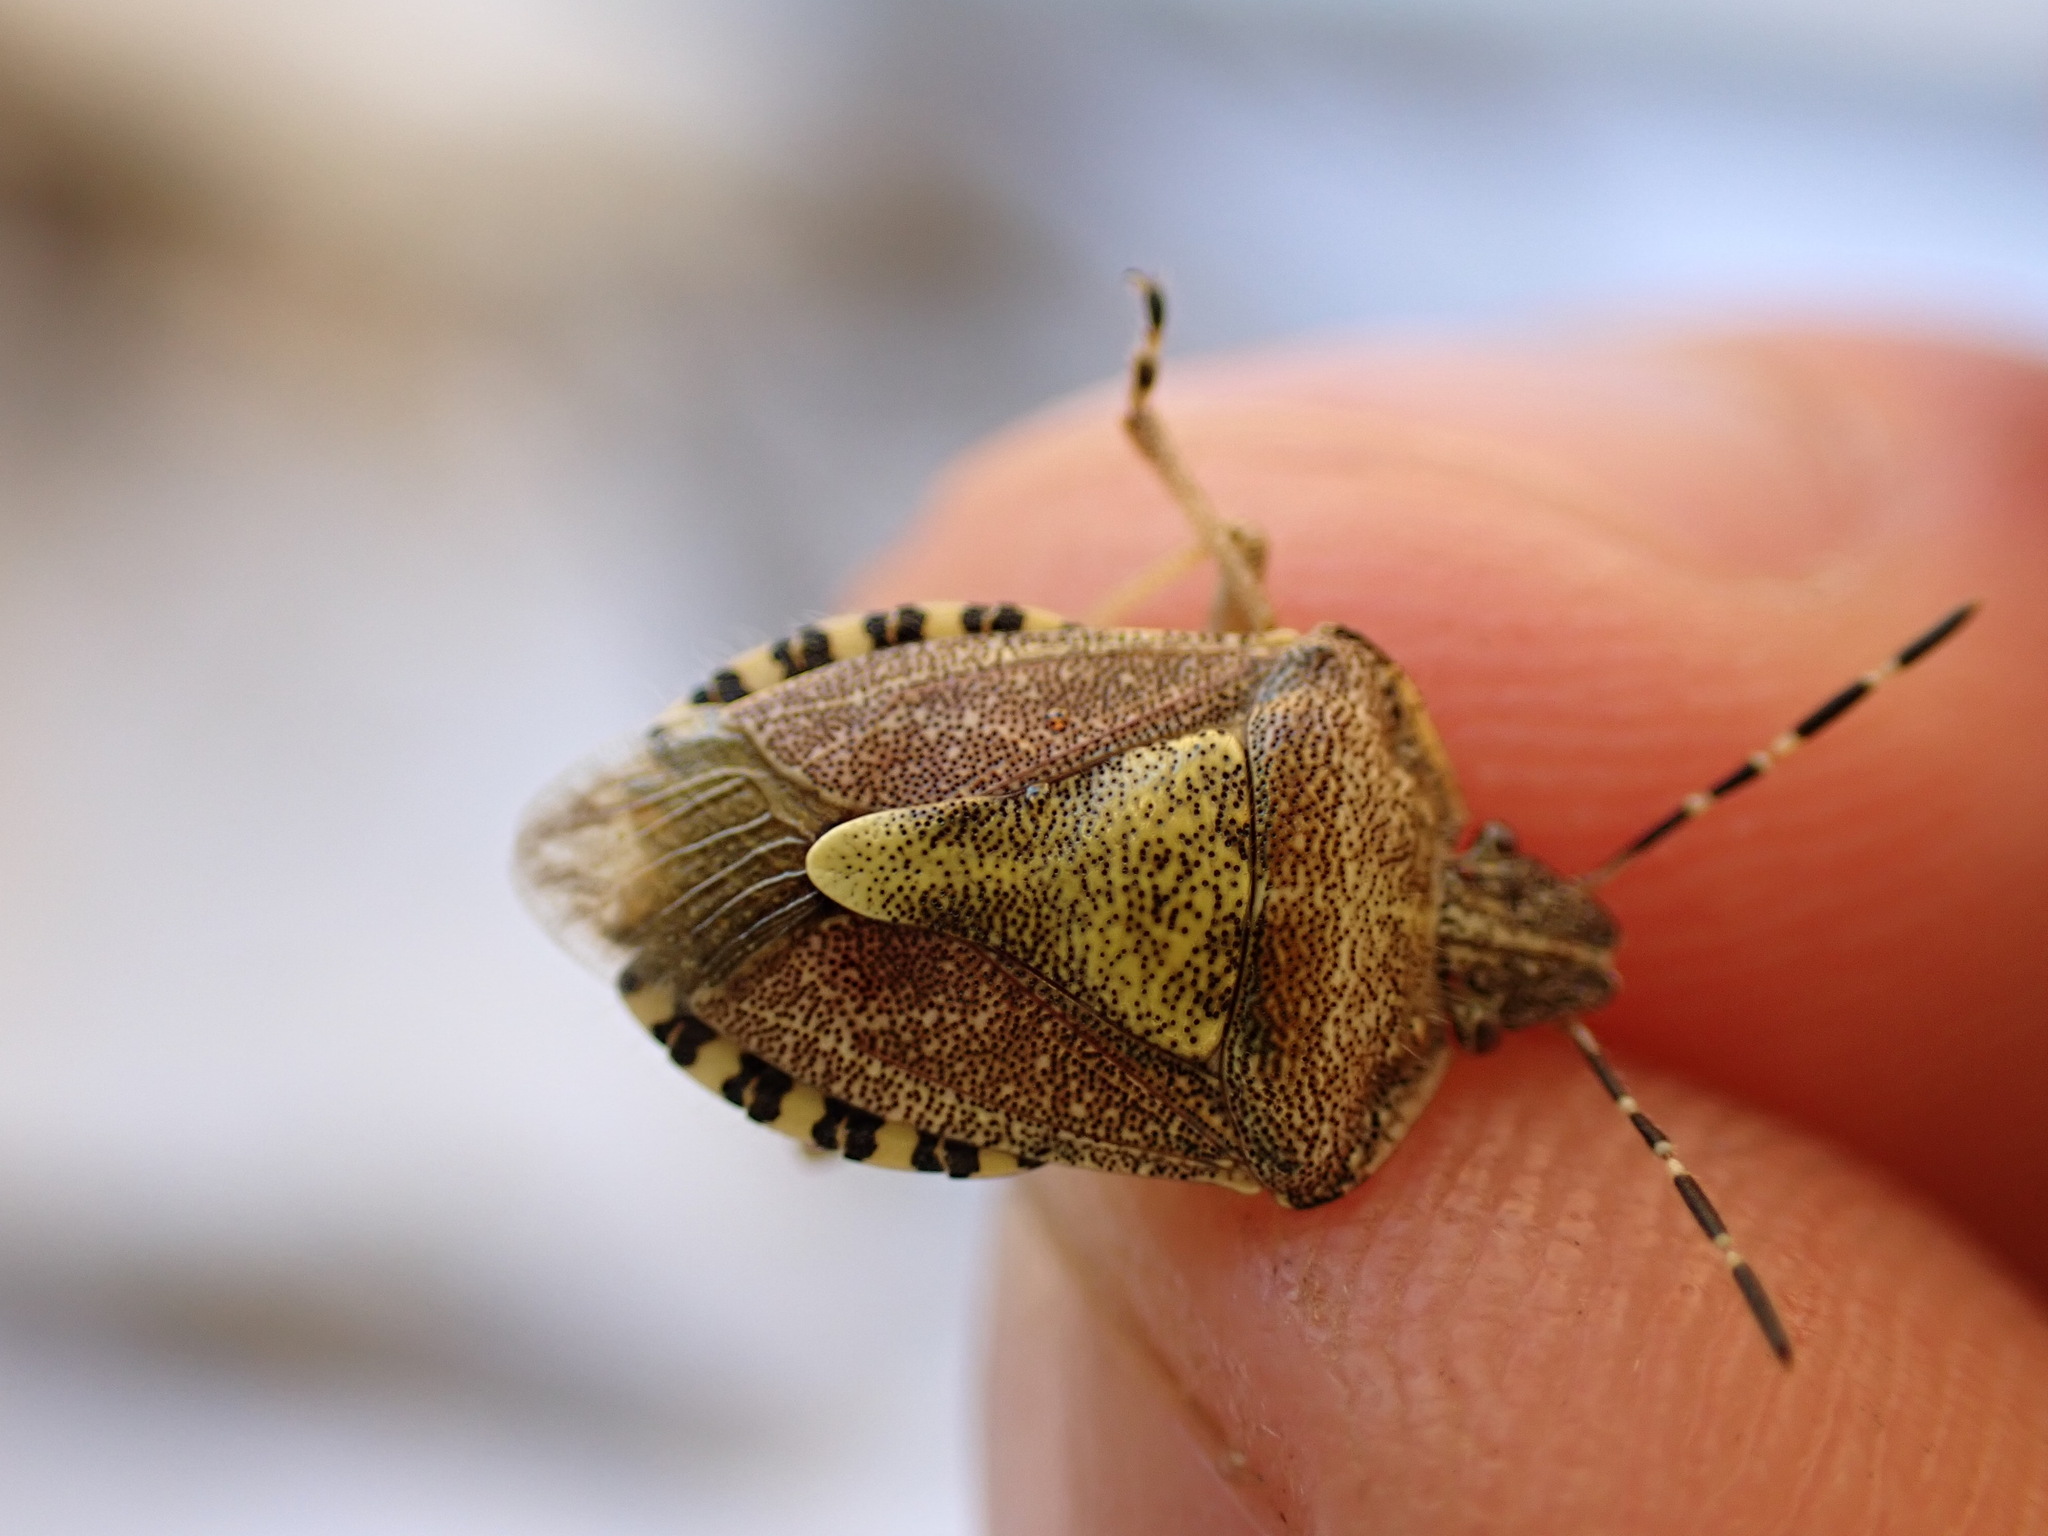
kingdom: Animalia
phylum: Arthropoda
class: Insecta
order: Hemiptera
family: Pentatomidae
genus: Dolycoris
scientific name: Dolycoris baccarum
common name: Sloe bug
